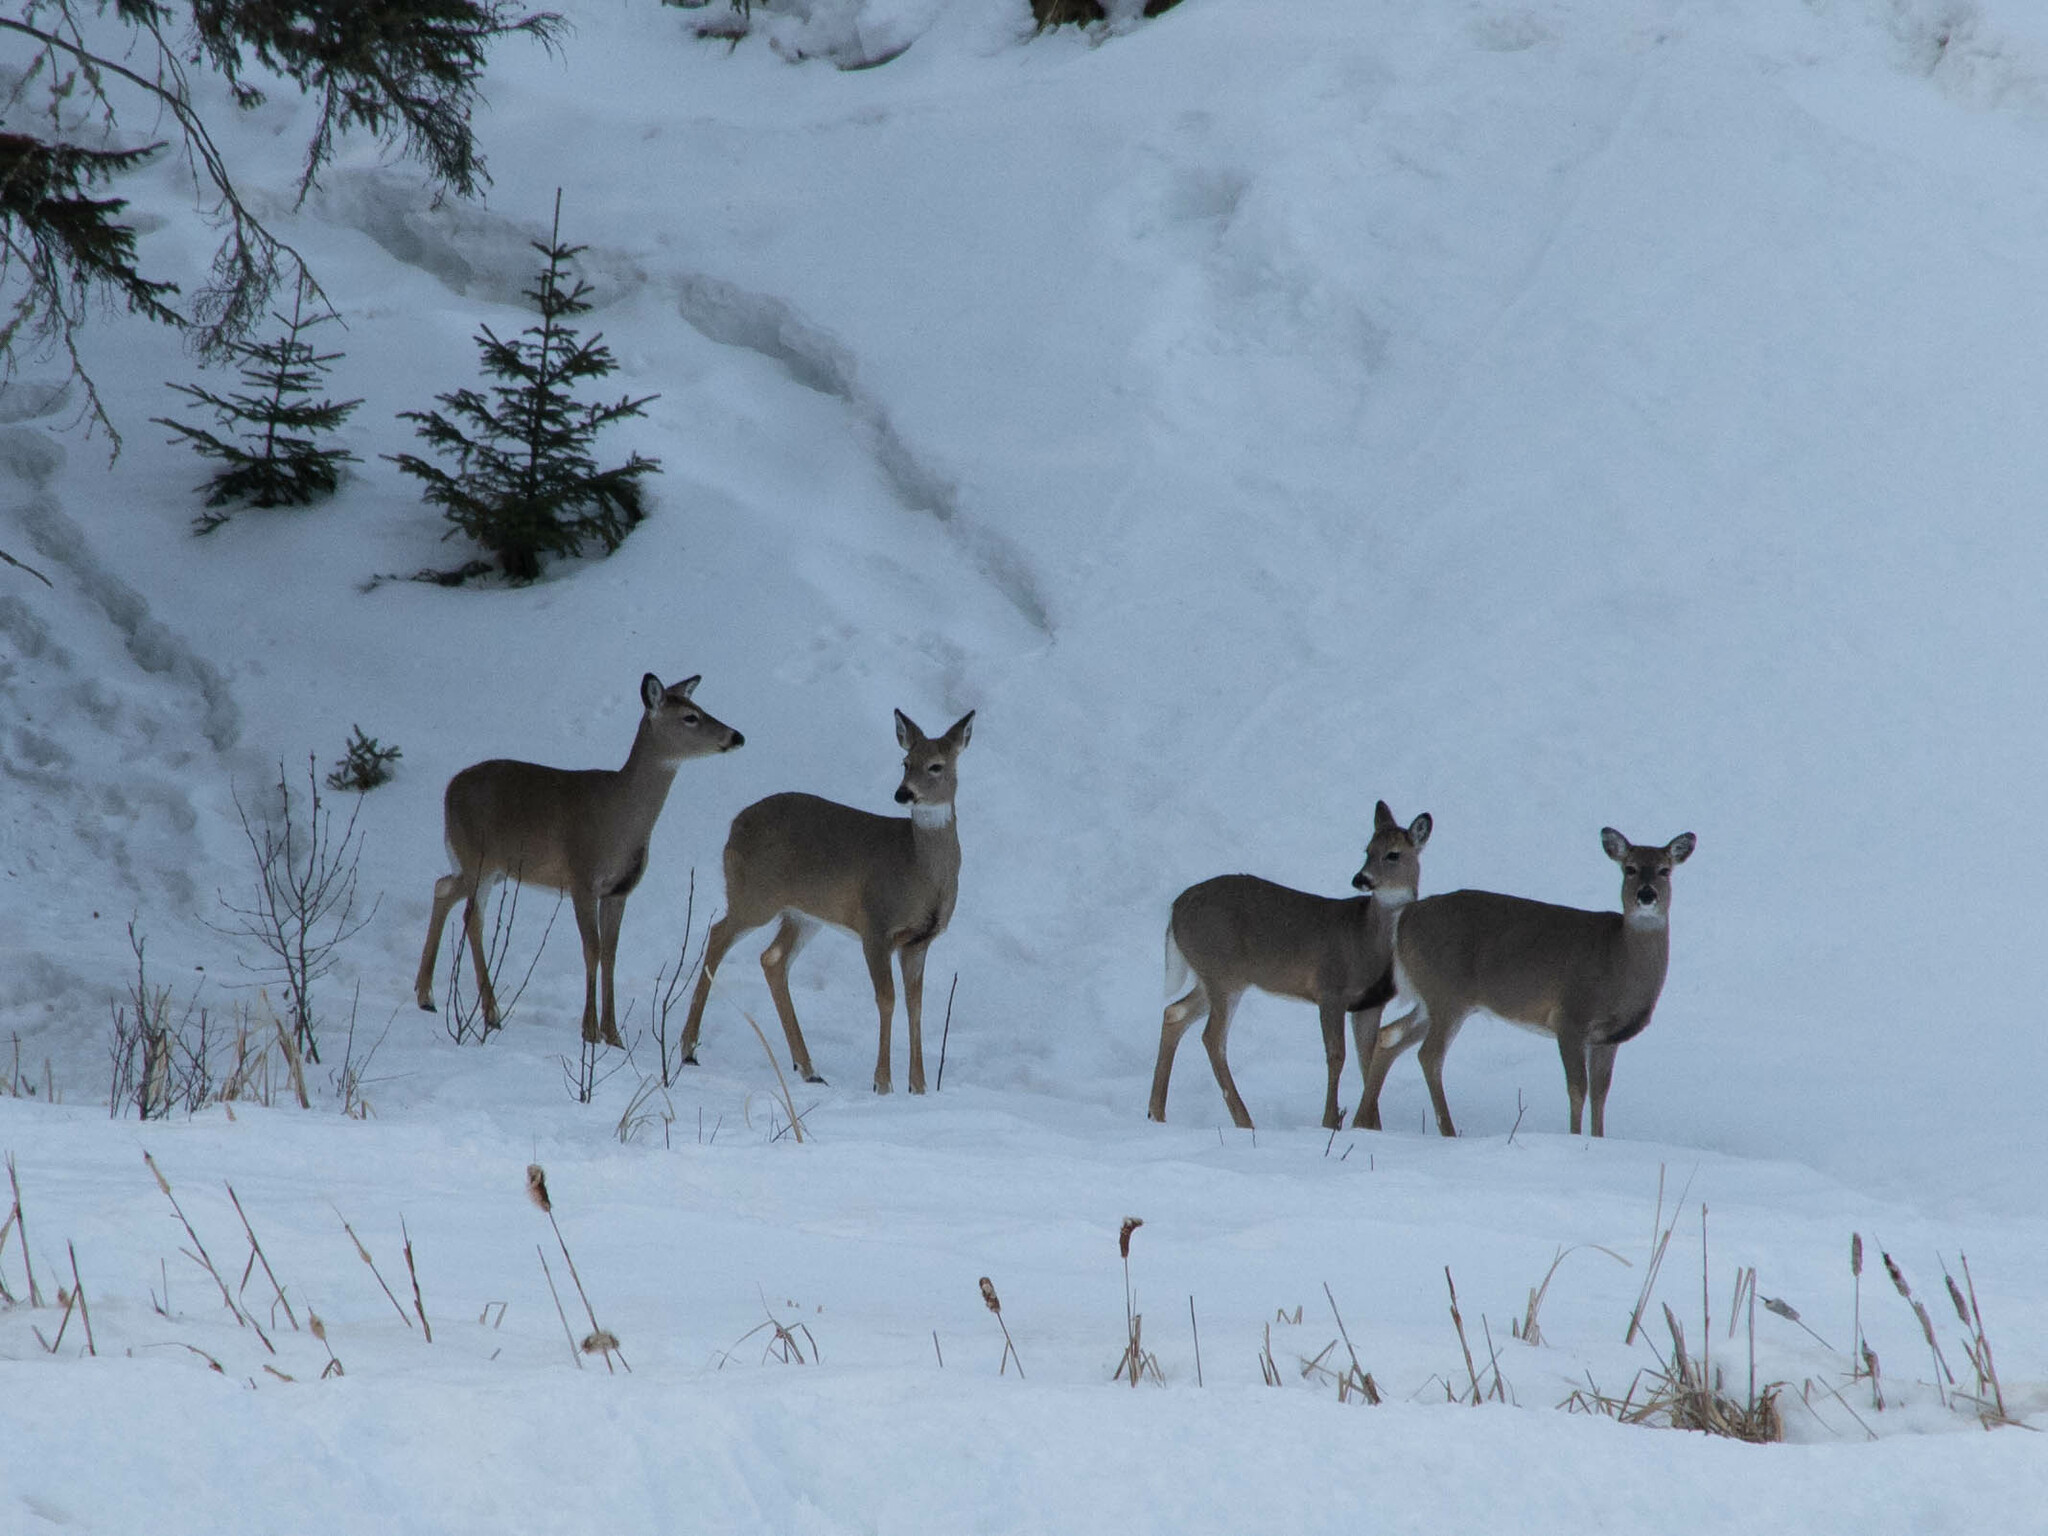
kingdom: Animalia
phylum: Chordata
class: Mammalia
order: Artiodactyla
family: Cervidae
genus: Odocoileus
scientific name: Odocoileus virginianus
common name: White-tailed deer
